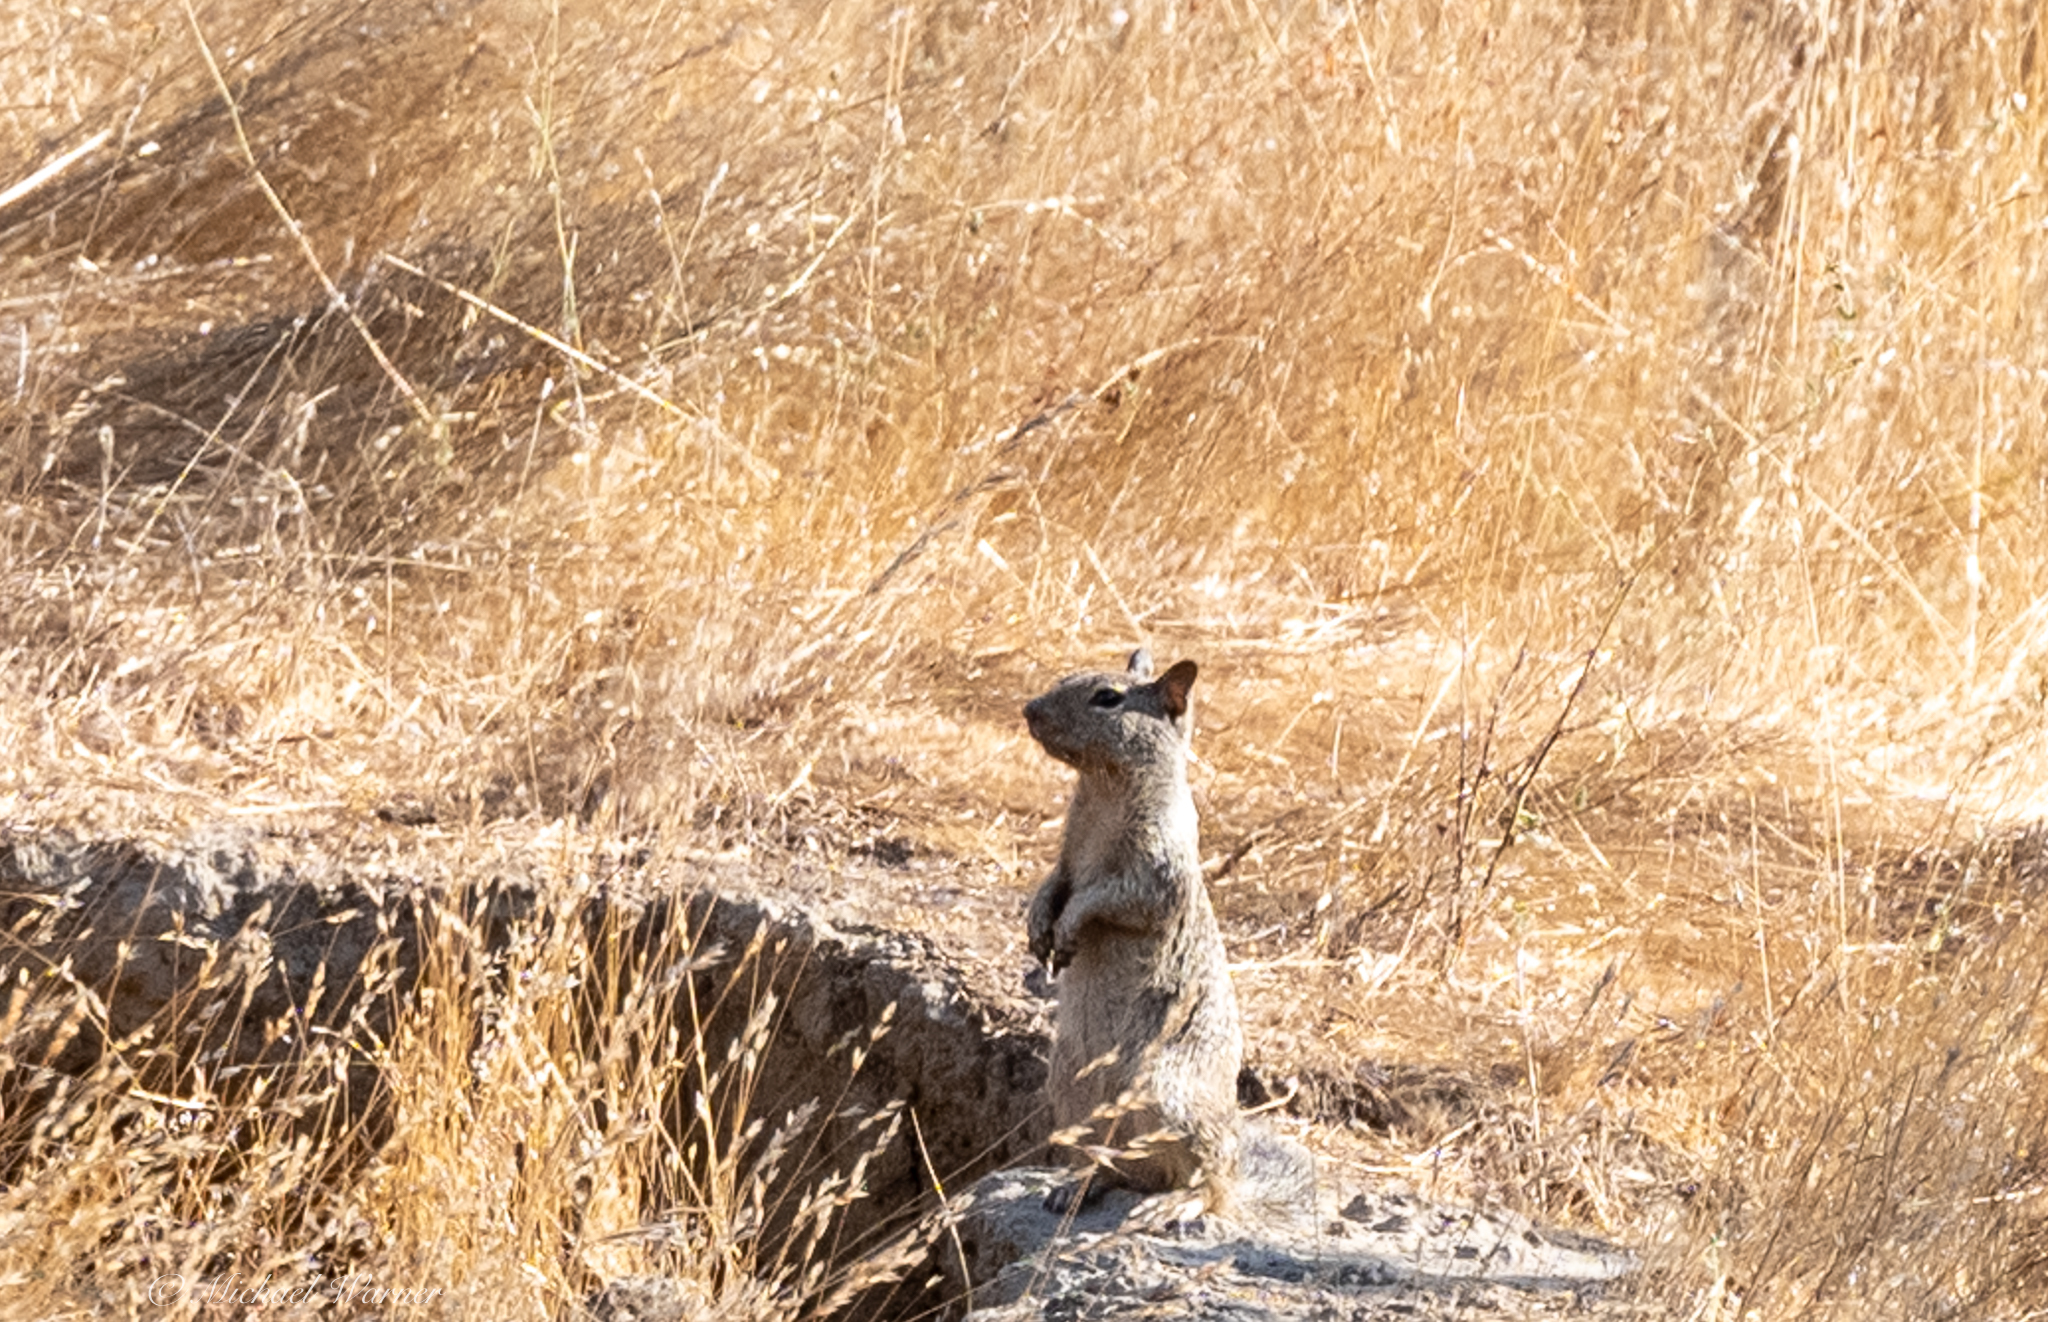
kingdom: Animalia
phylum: Chordata
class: Mammalia
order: Rodentia
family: Sciuridae
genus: Otospermophilus
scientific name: Otospermophilus beecheyi
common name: California ground squirrel
